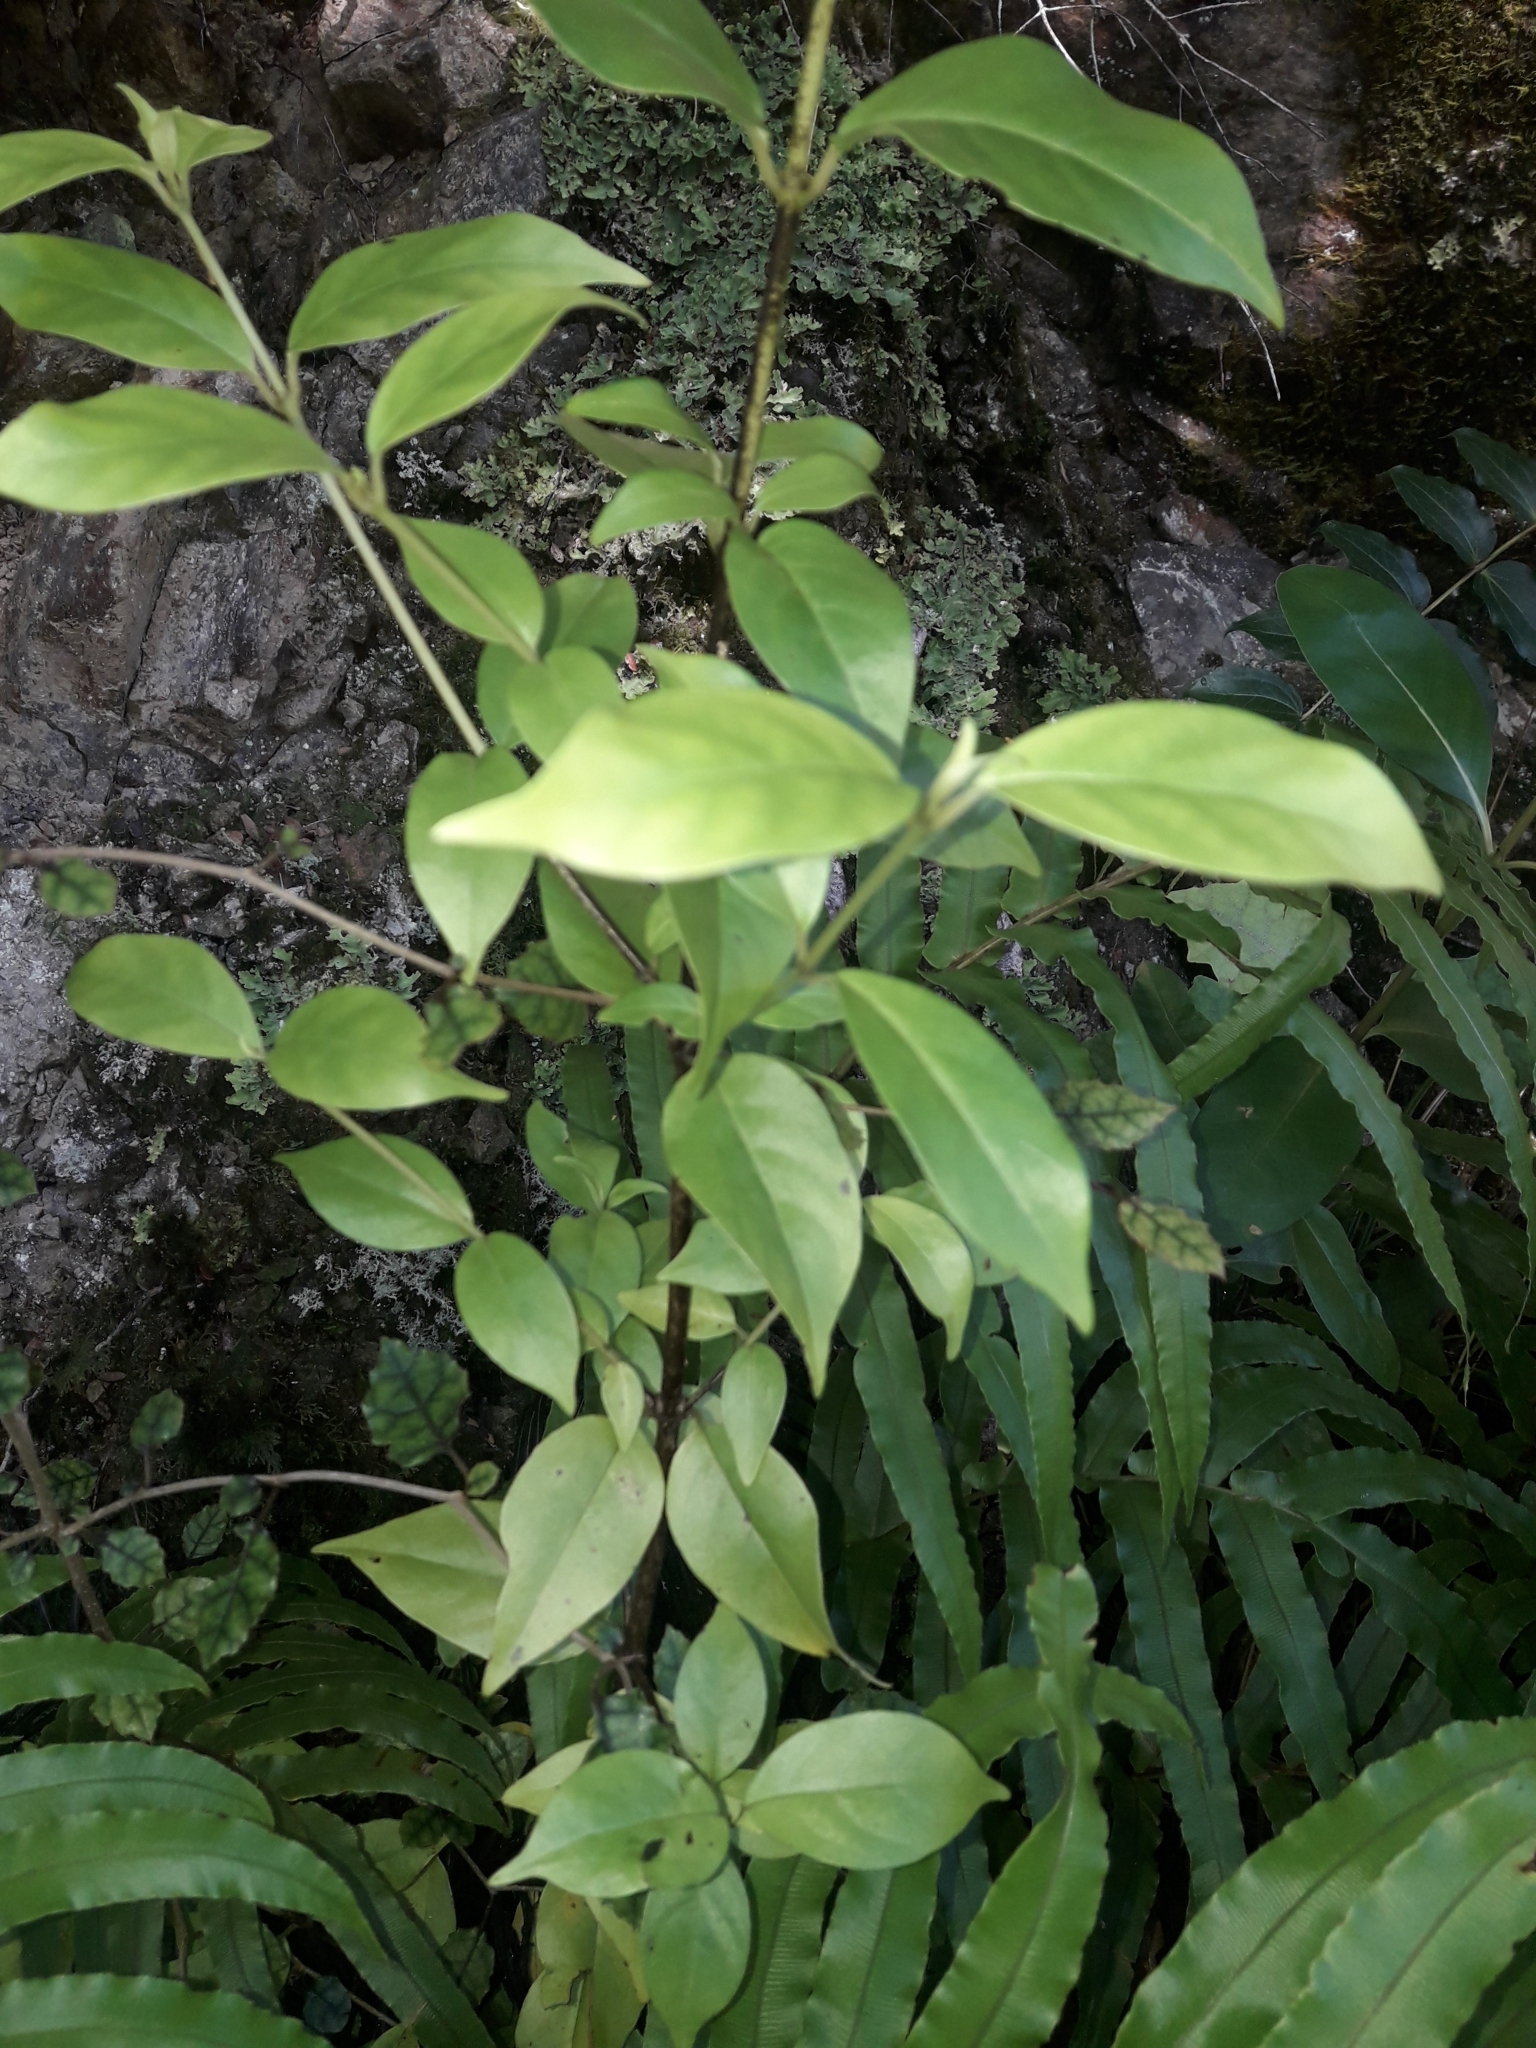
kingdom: Plantae
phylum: Tracheophyta
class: Magnoliopsida
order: Gentianales
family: Loganiaceae
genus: Geniostoma
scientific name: Geniostoma ligustrifolium
